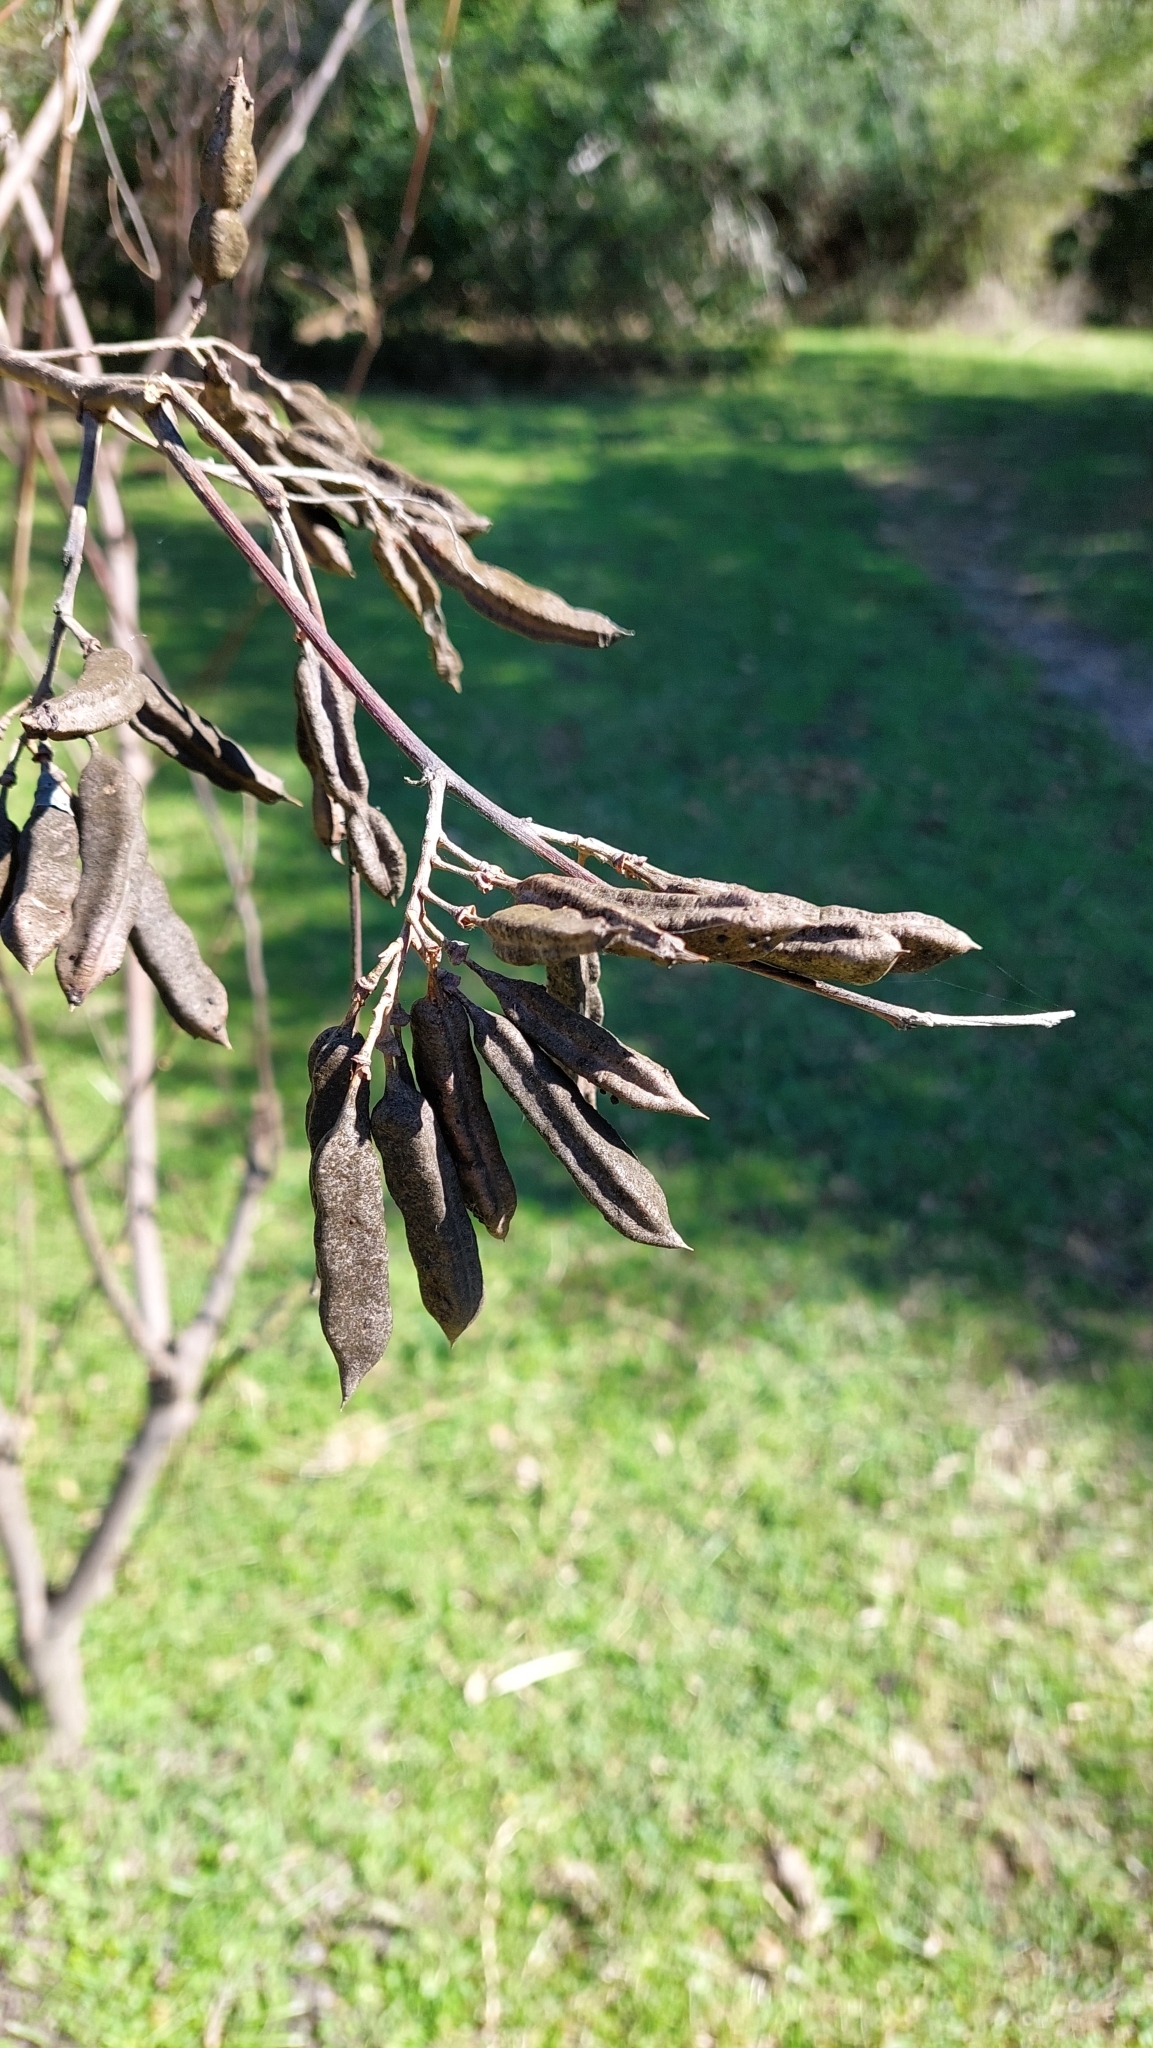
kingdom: Plantae
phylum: Tracheophyta
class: Magnoliopsida
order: Fabales
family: Fabaceae
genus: Sesbania
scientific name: Sesbania virgata
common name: Wand riverhemp
